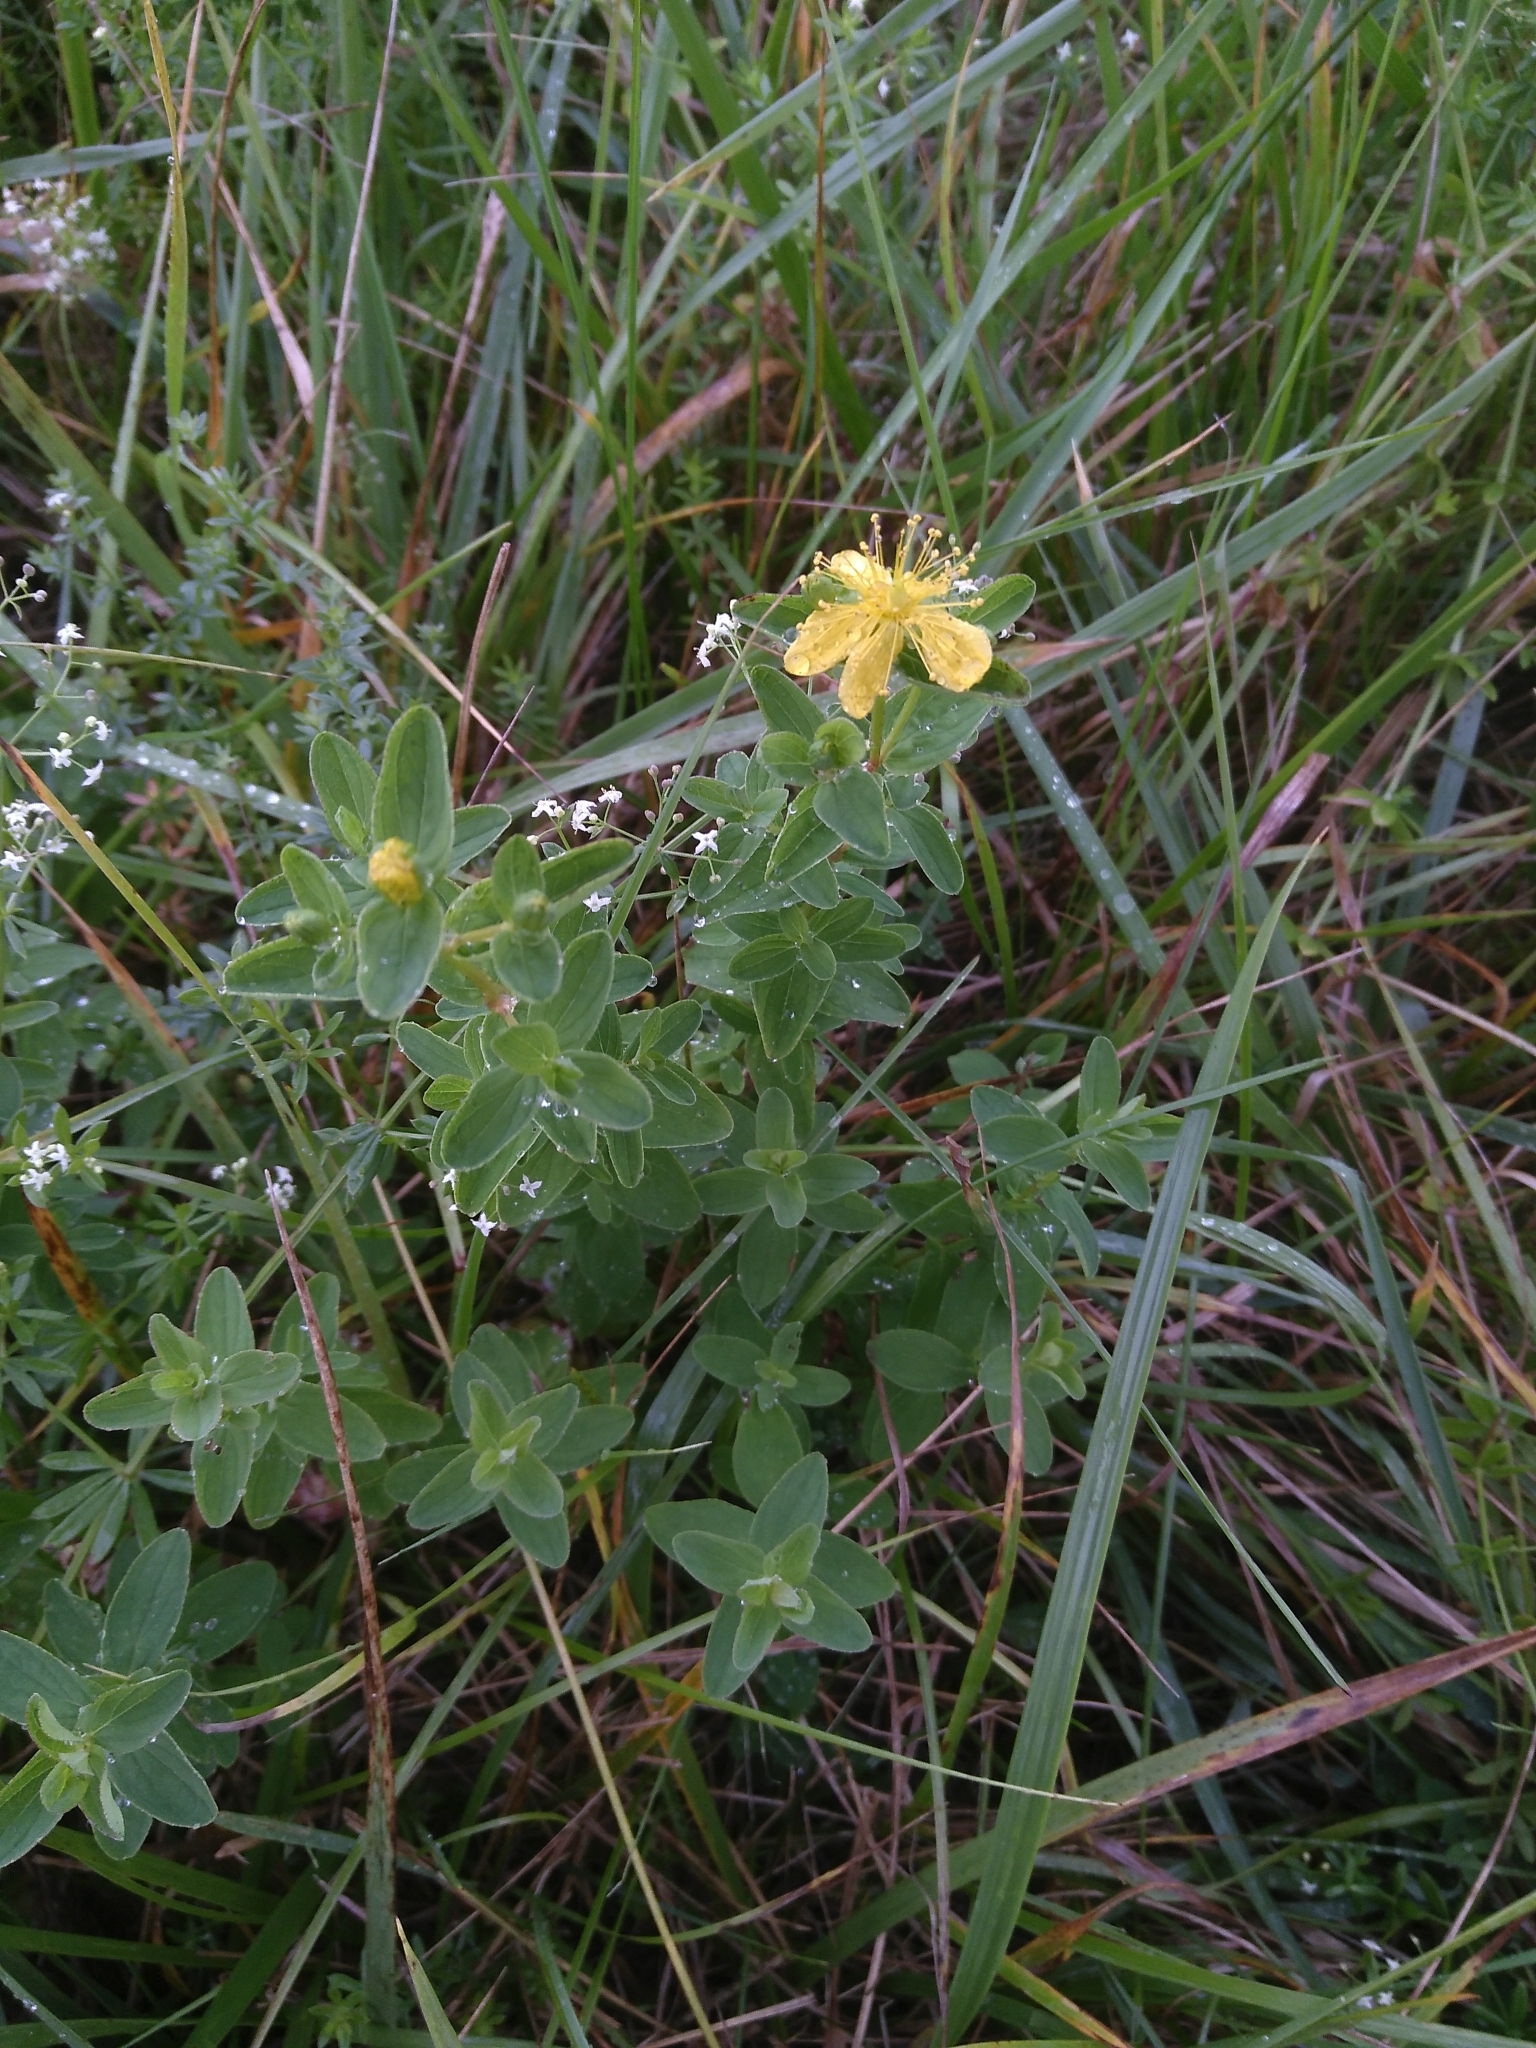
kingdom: Plantae
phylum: Tracheophyta
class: Magnoliopsida
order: Malpighiales
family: Hypericaceae
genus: Hypericum
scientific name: Hypericum maculatum
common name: Imperforate st. john's-wort
